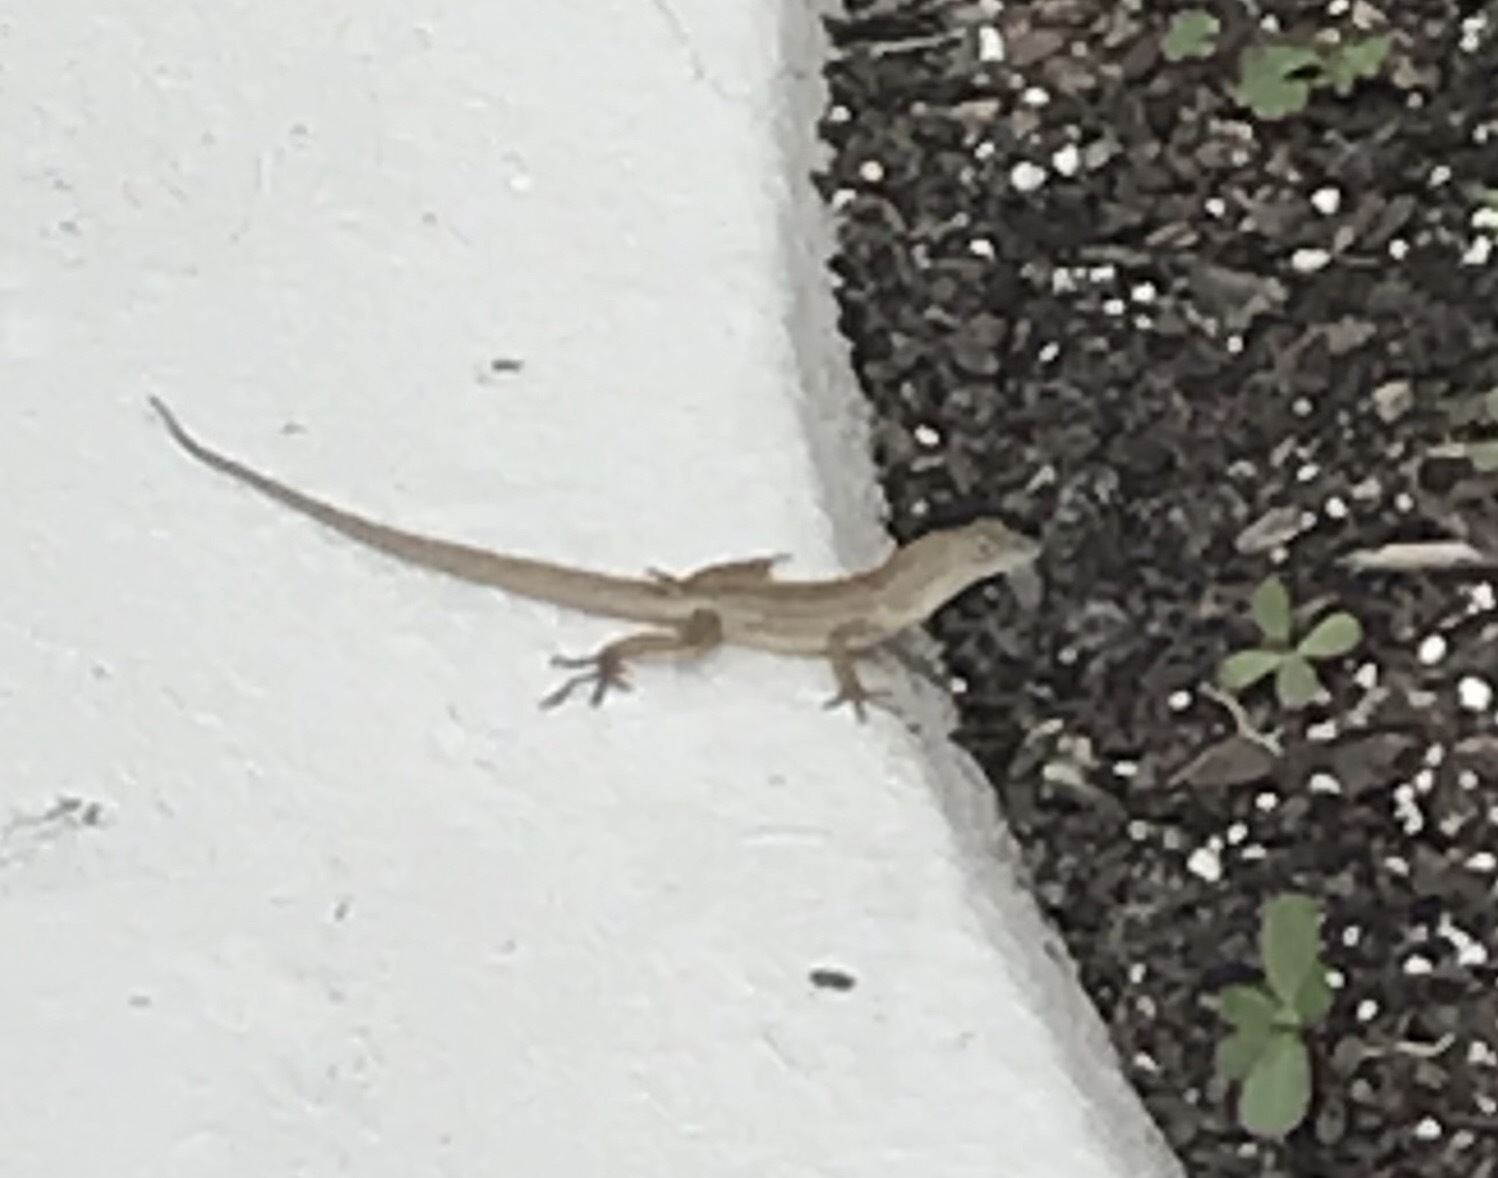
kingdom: Animalia
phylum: Chordata
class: Squamata
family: Dactyloidae
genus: Anolis
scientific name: Anolis sagrei
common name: Brown anole
